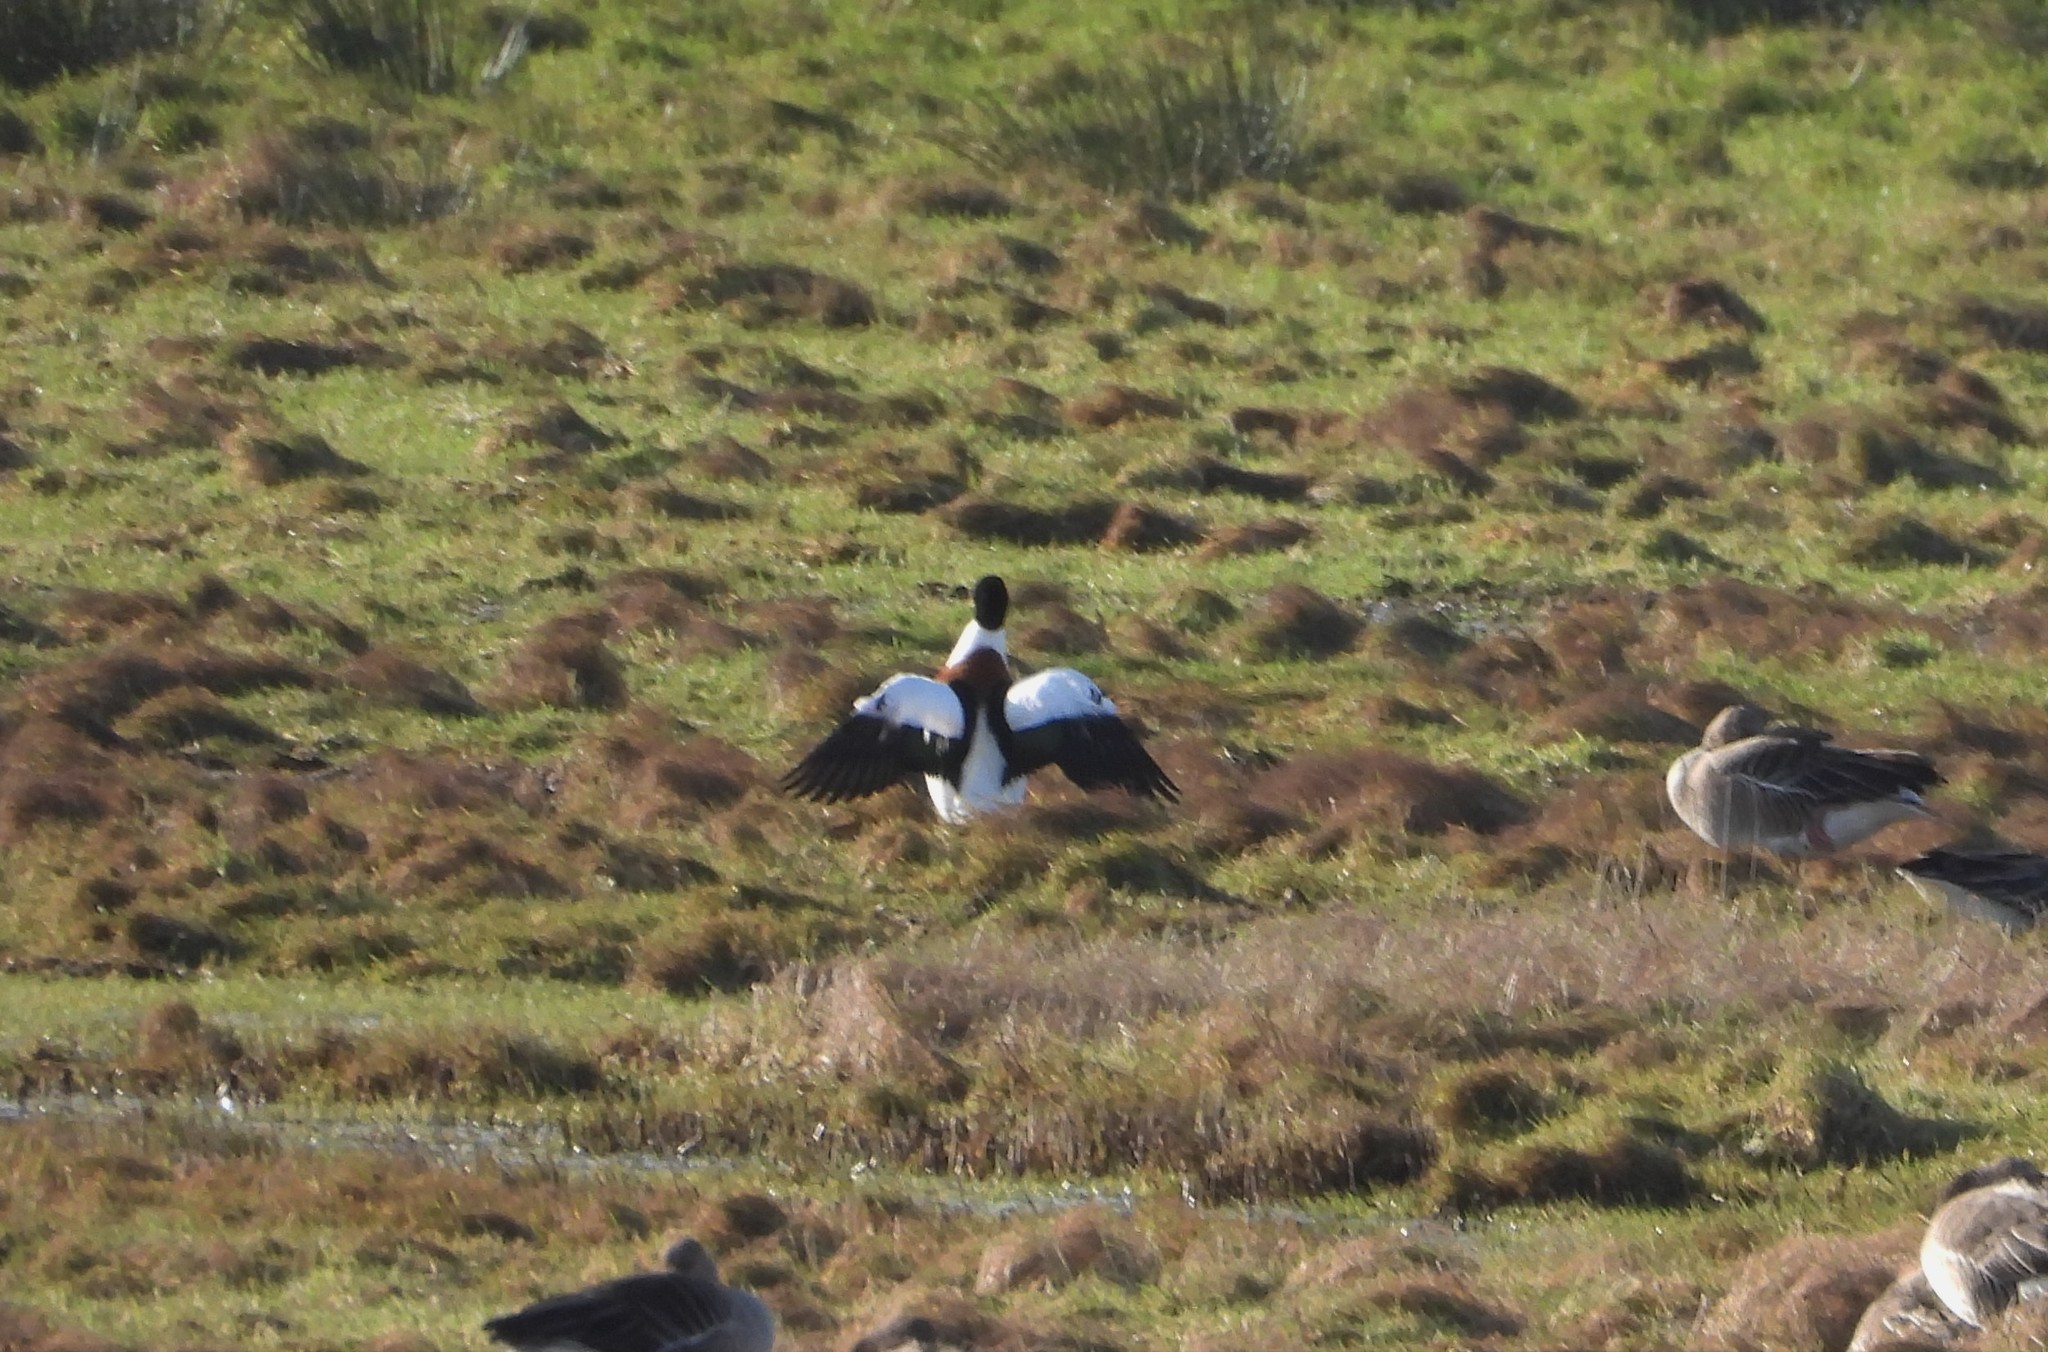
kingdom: Animalia
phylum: Chordata
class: Aves
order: Anseriformes
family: Anatidae
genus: Tadorna
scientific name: Tadorna tadorna
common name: Common shelduck
